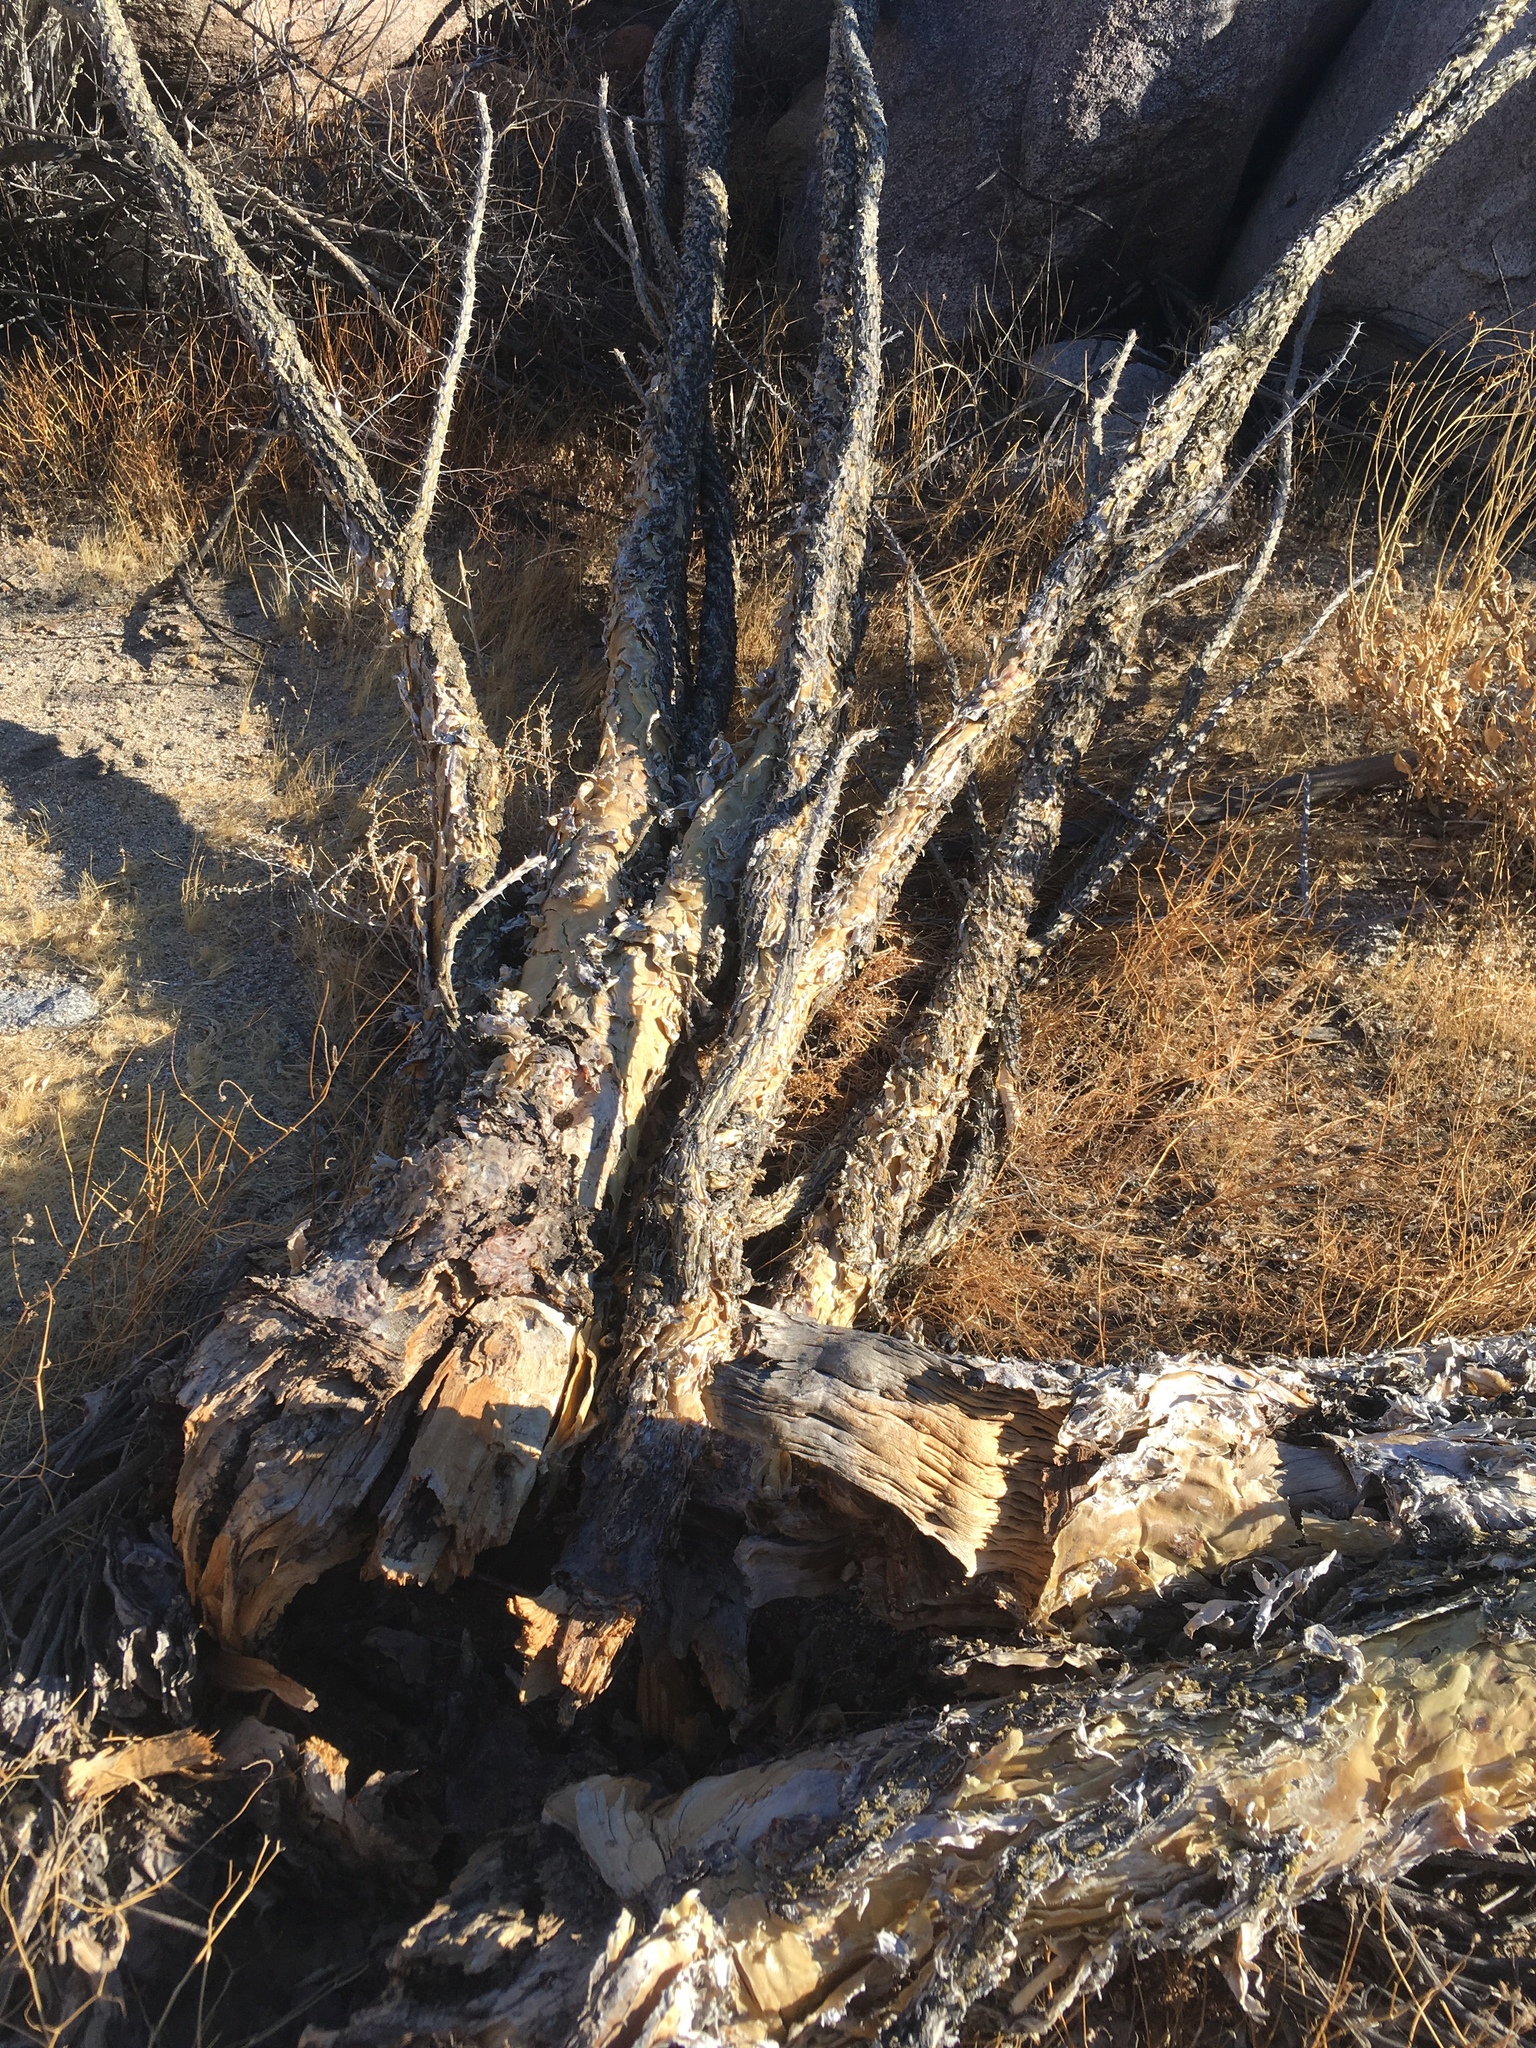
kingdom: Plantae
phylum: Tracheophyta
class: Magnoliopsida
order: Ericales
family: Fouquieriaceae
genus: Fouquieria
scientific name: Fouquieria splendens
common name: Vine-cactus
